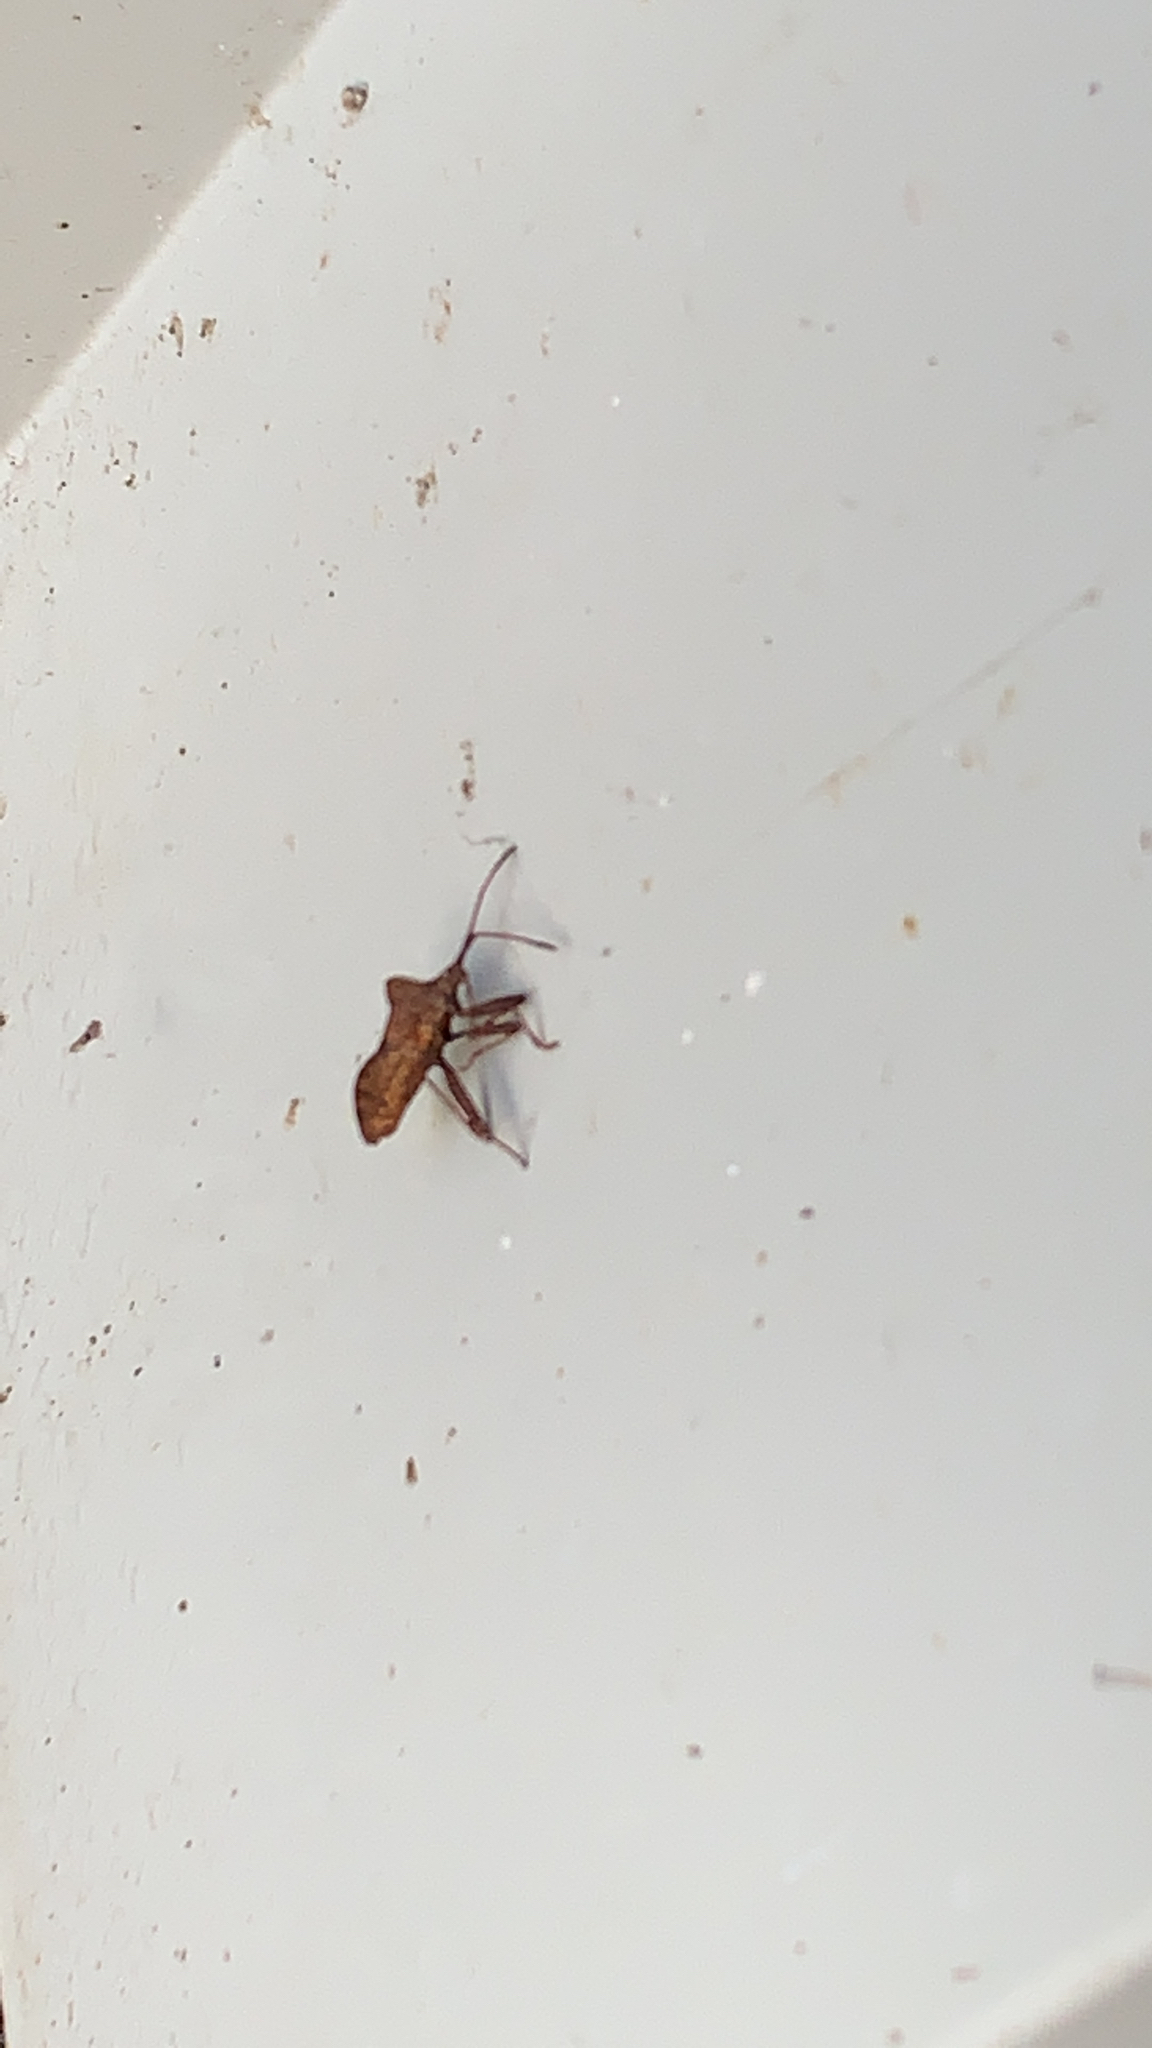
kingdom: Animalia
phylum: Arthropoda
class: Insecta
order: Hemiptera
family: Coreidae
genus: Coreus
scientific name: Coreus marginatus
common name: Dock bug
